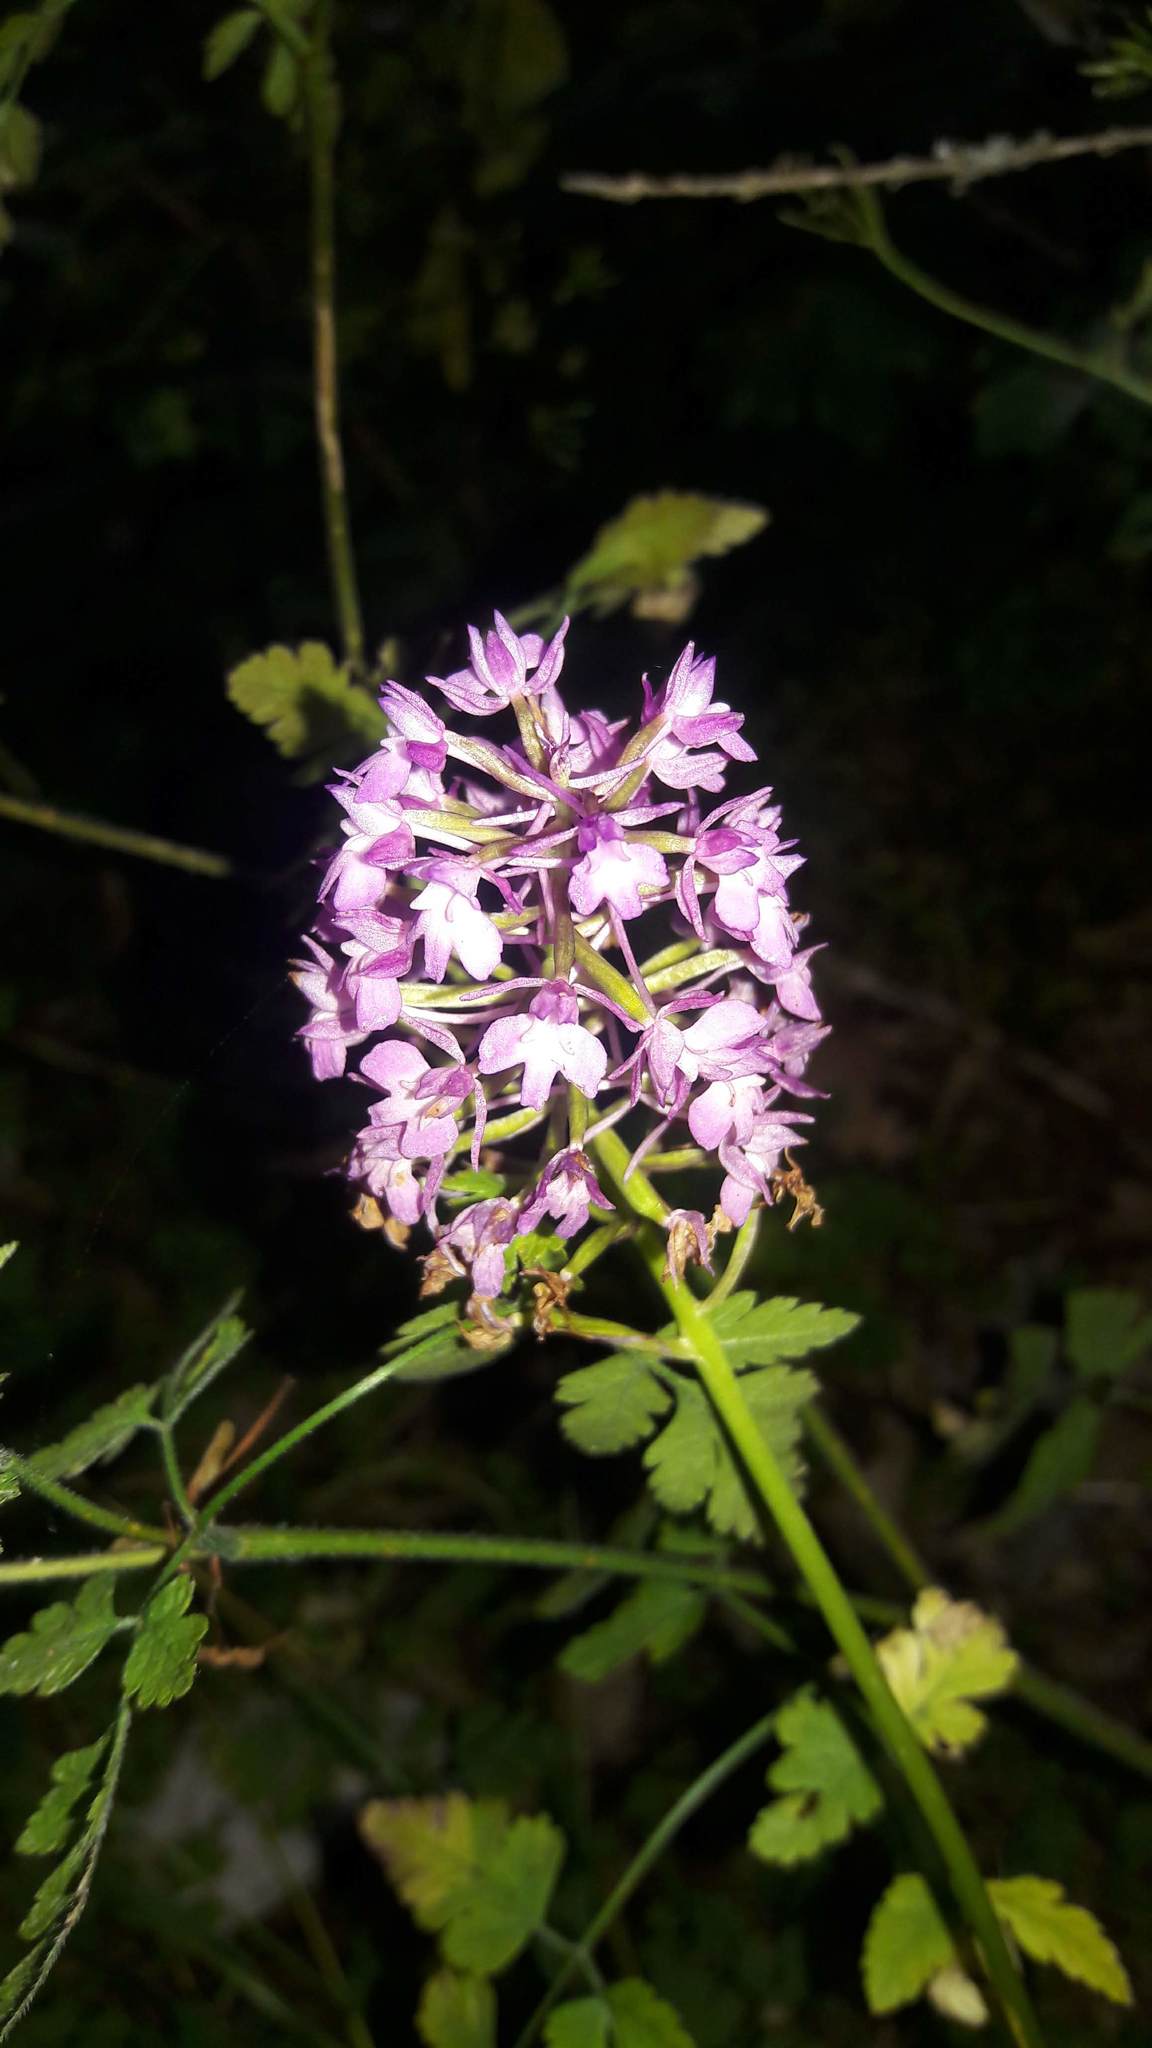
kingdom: Plantae
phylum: Tracheophyta
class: Liliopsida
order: Asparagales
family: Orchidaceae
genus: Anacamptis
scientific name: Anacamptis pyramidalis
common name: Pyramidal orchid
